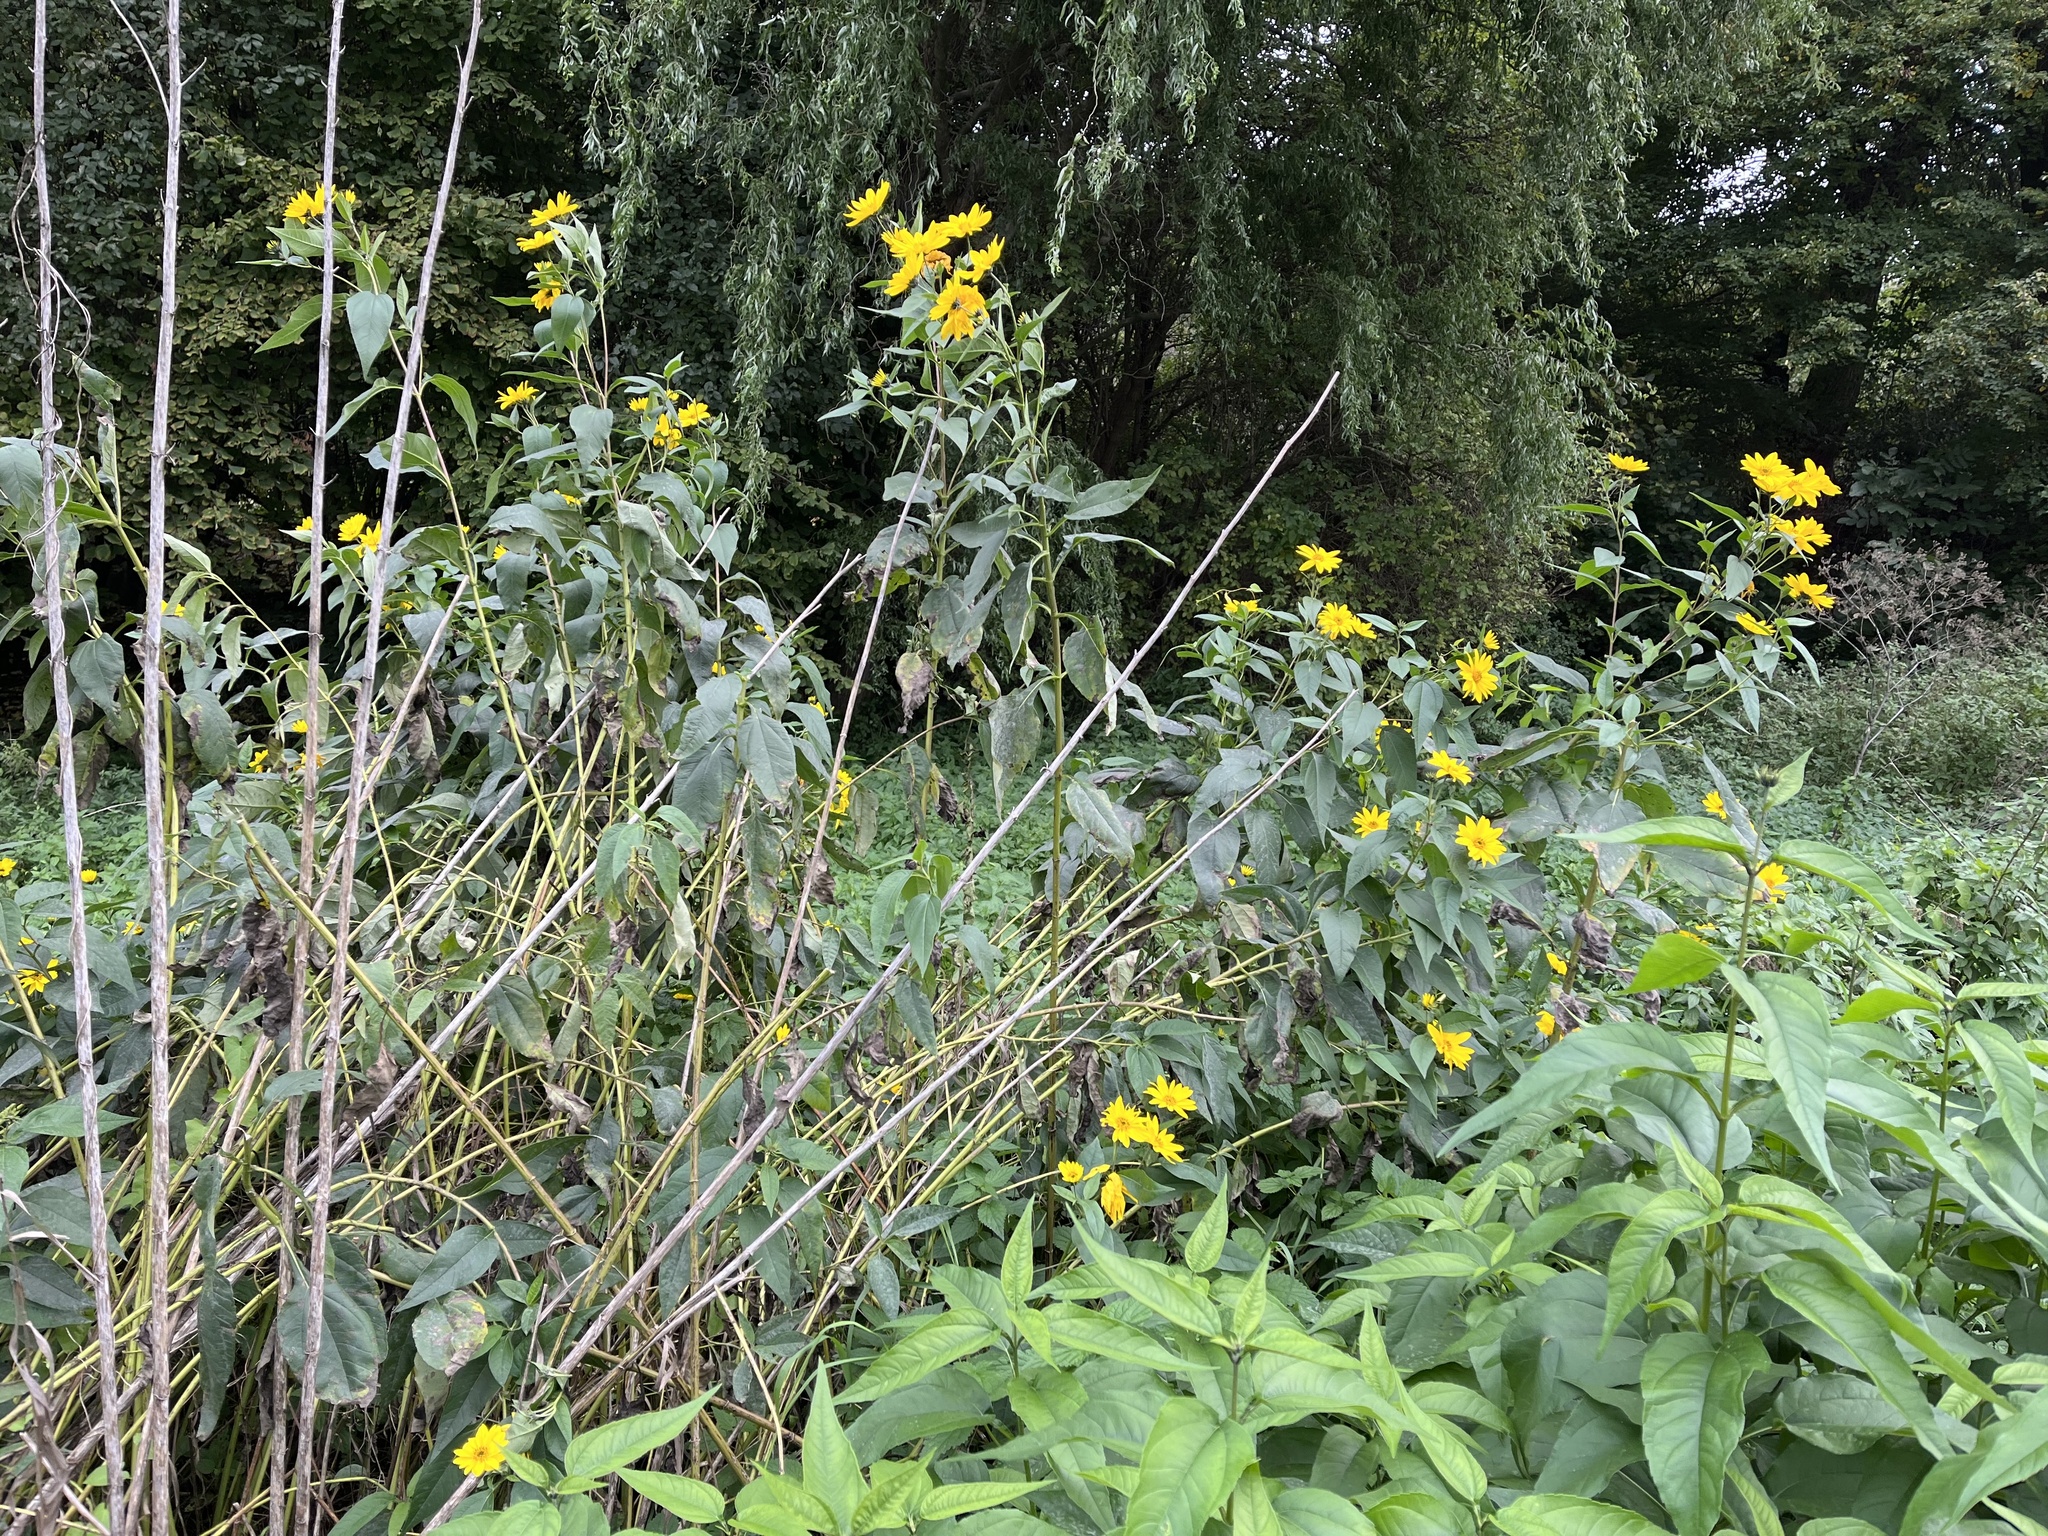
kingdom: Plantae
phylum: Tracheophyta
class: Magnoliopsida
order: Asterales
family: Asteraceae
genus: Helianthus
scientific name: Helianthus tuberosus
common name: Jerusalem artichoke
